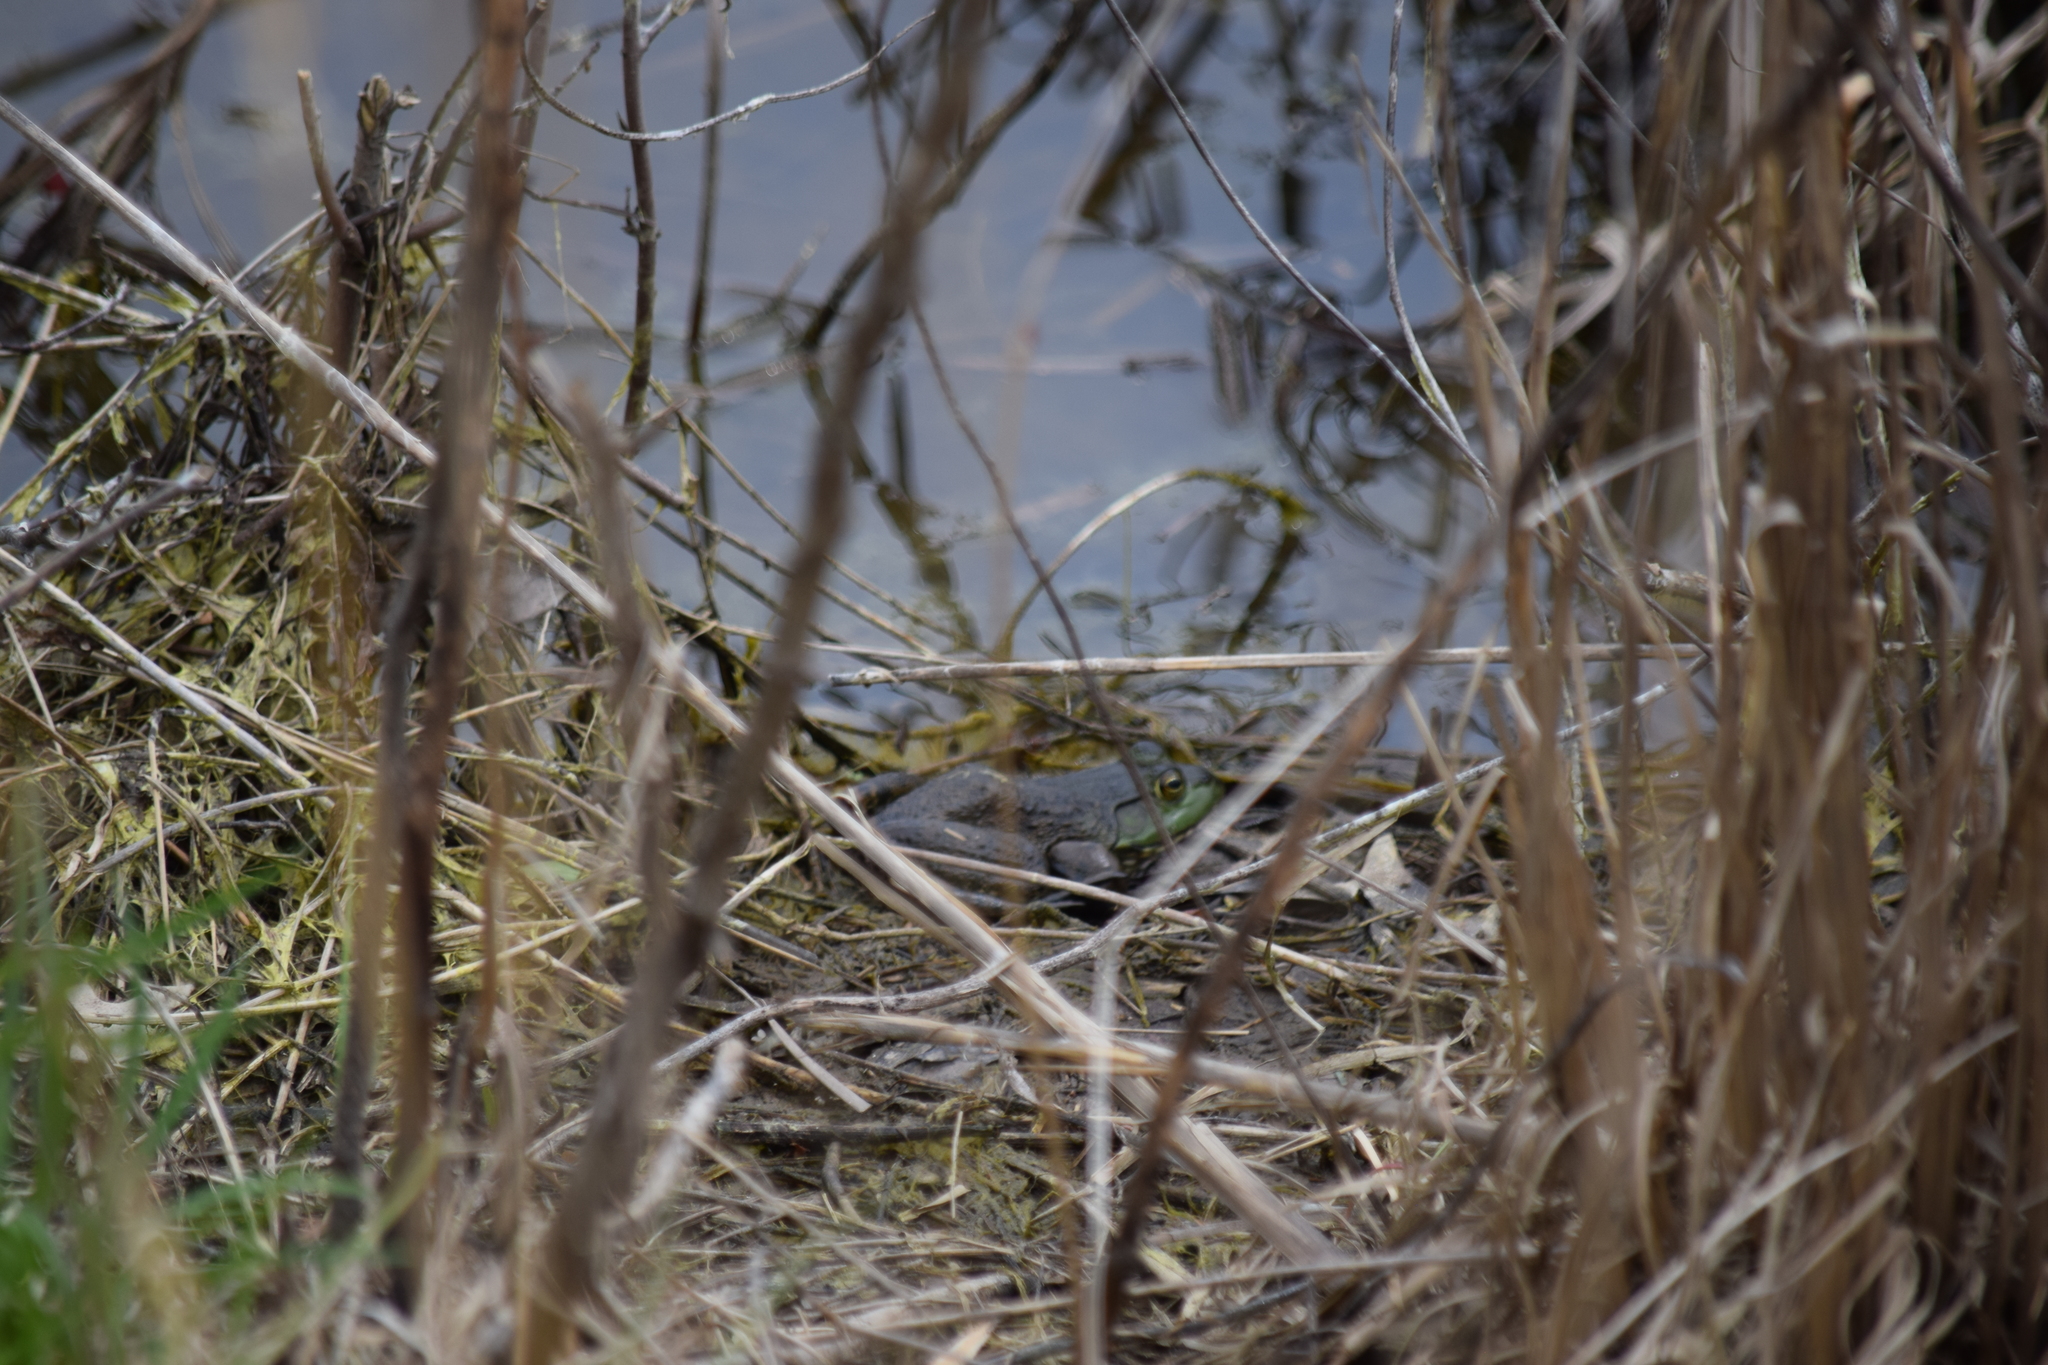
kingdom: Animalia
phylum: Chordata
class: Amphibia
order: Anura
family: Ranidae
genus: Lithobates
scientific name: Lithobates catesbeianus
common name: American bullfrog
